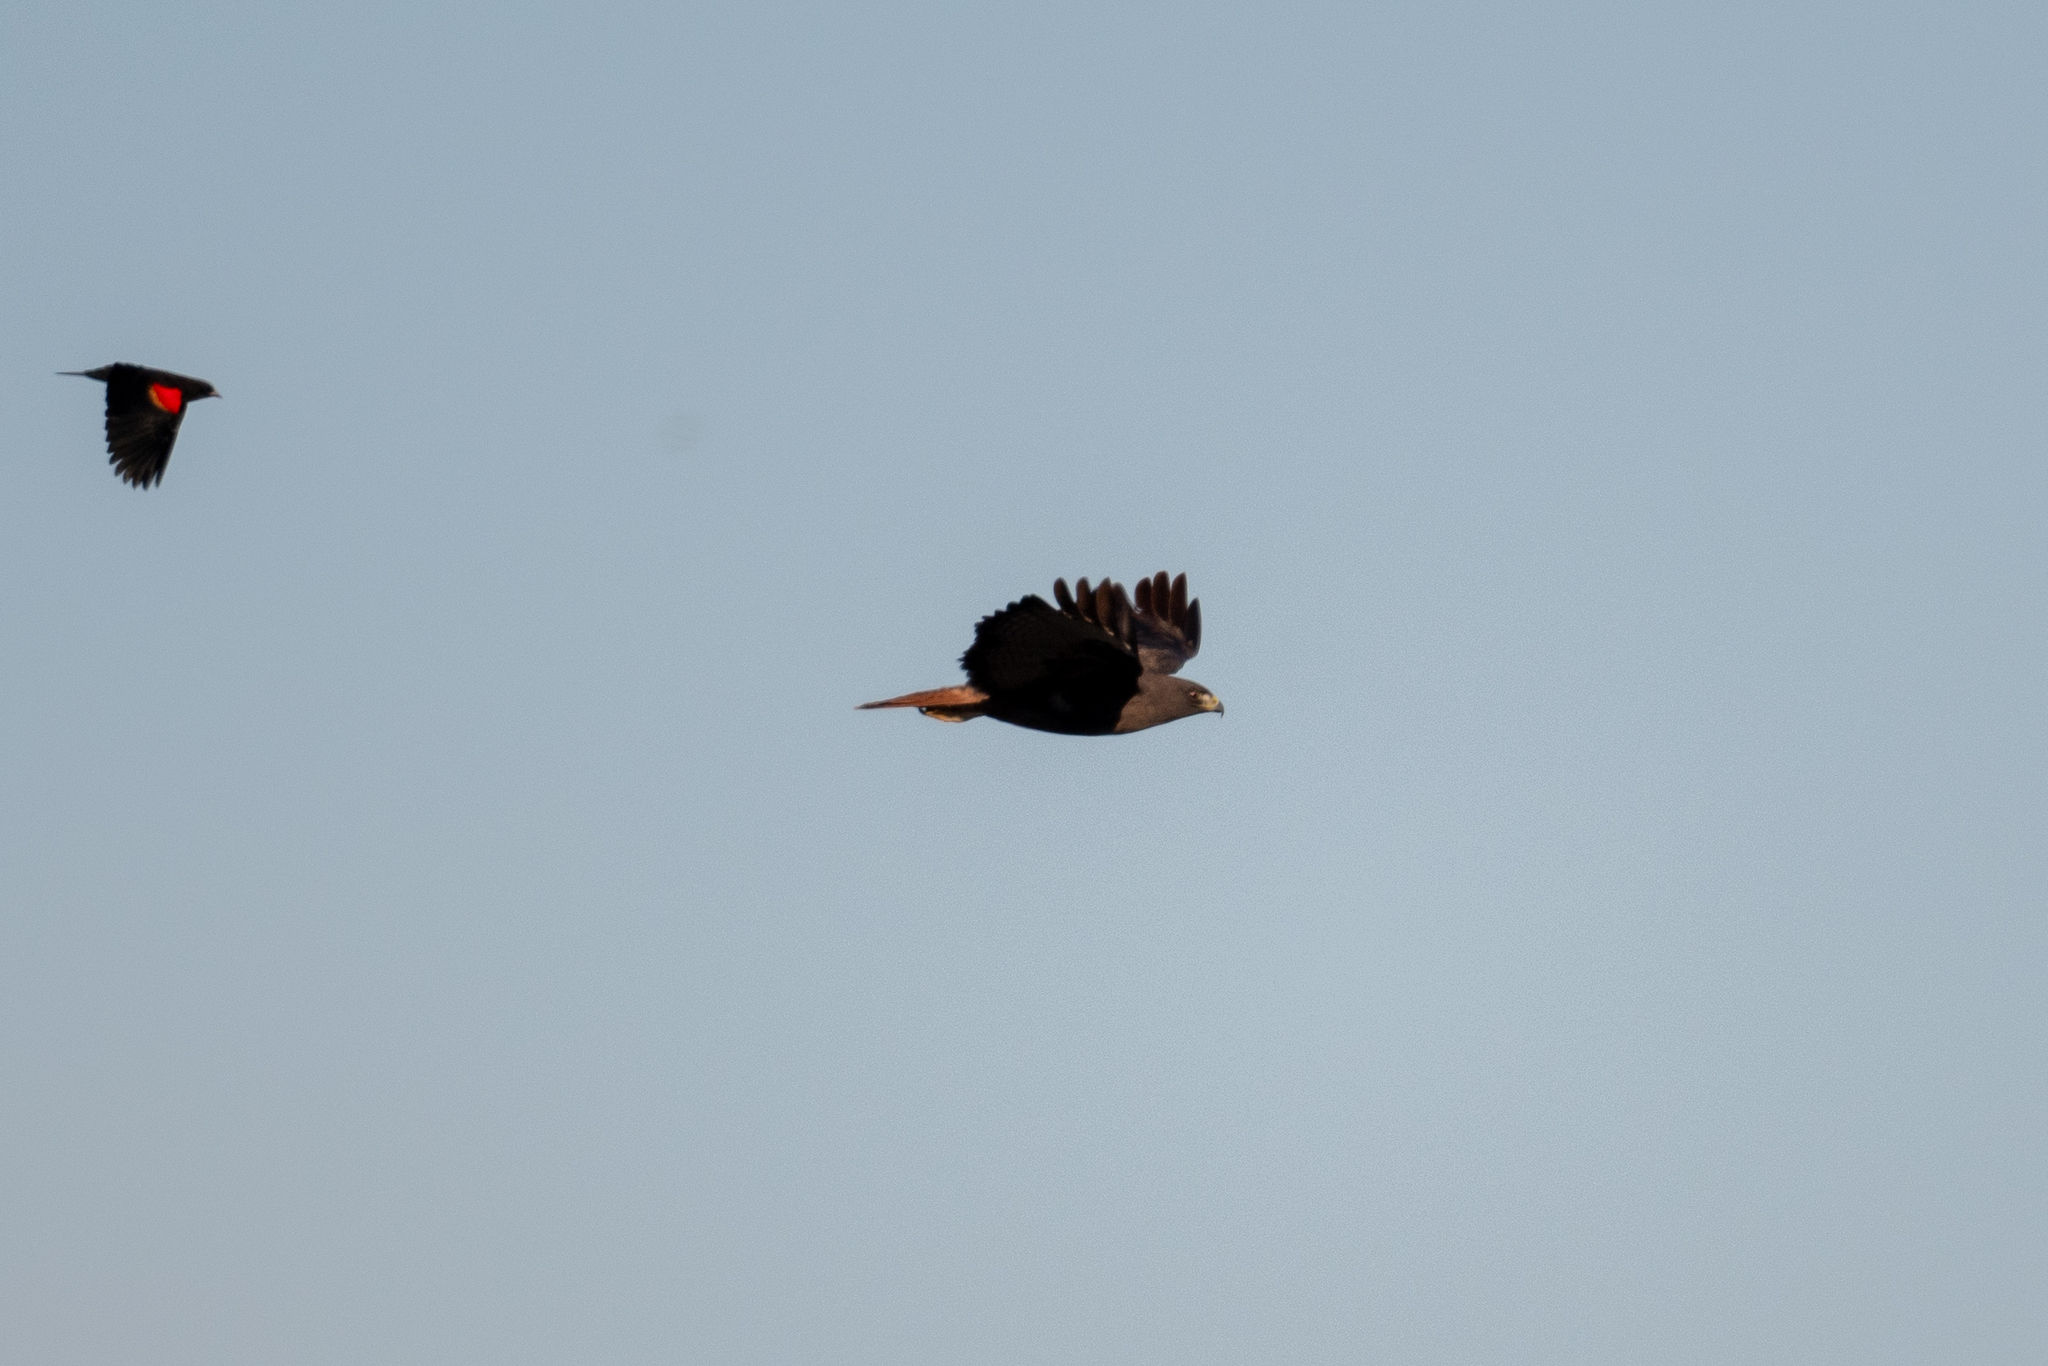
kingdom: Animalia
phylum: Chordata
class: Aves
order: Accipitriformes
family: Accipitridae
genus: Buteo
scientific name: Buteo jamaicensis
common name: Red-tailed hawk
